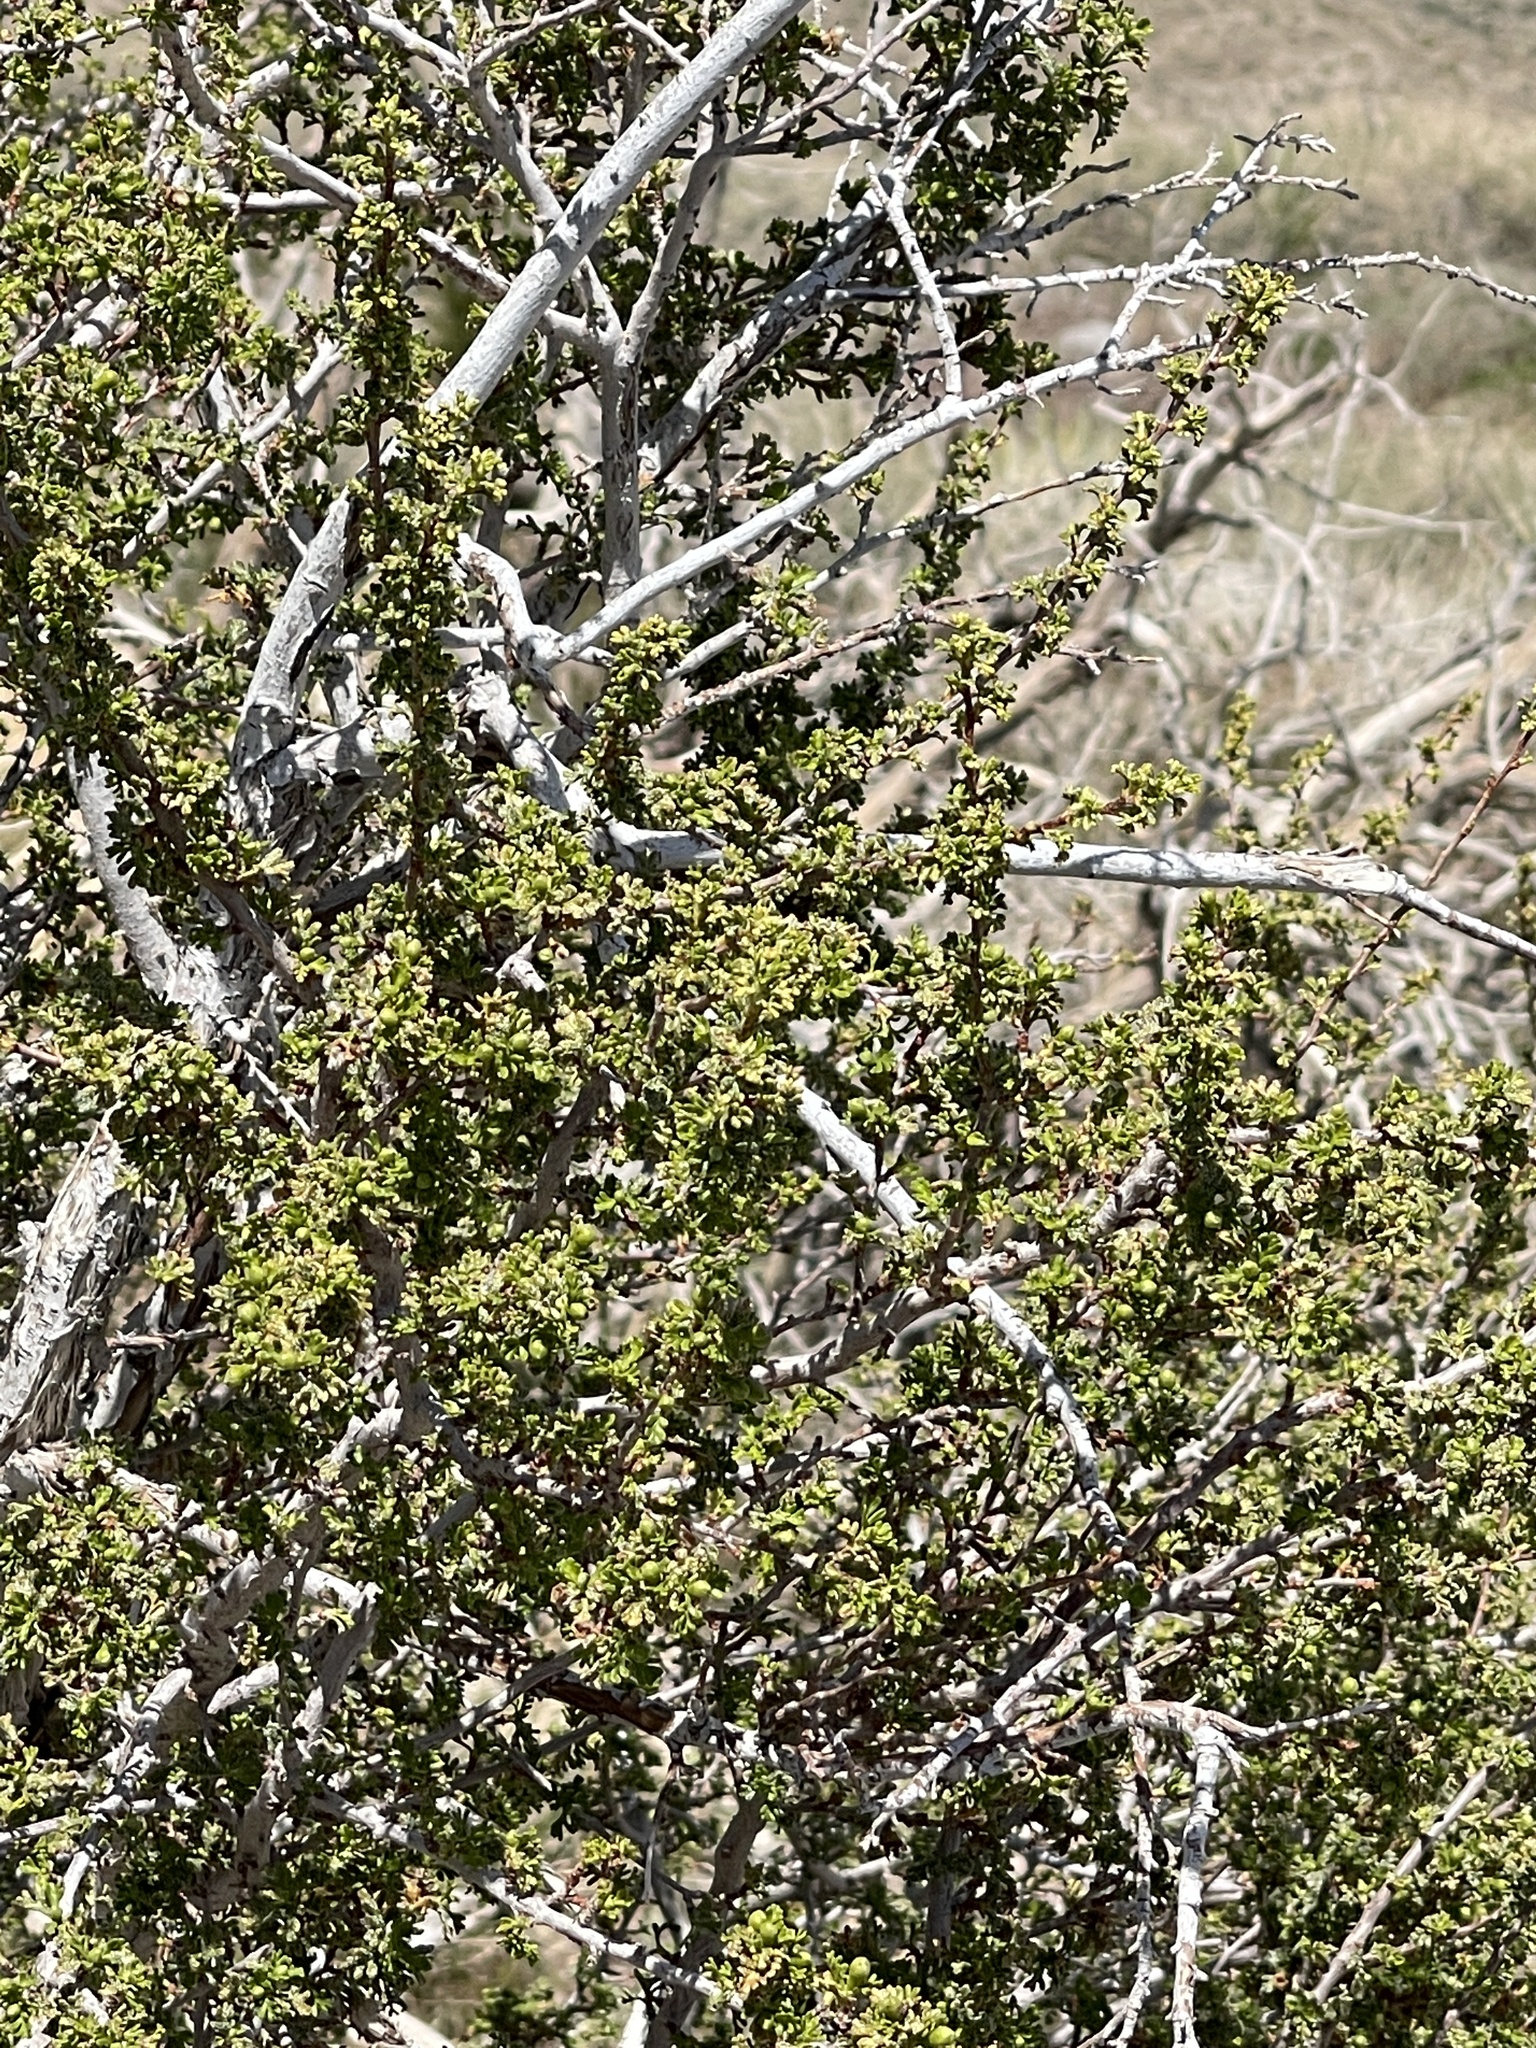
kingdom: Plantae
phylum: Tracheophyta
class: Magnoliopsida
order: Rosales
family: Rosaceae
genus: Purshia
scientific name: Purshia stansburiana
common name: Stansbury's cliffrose
